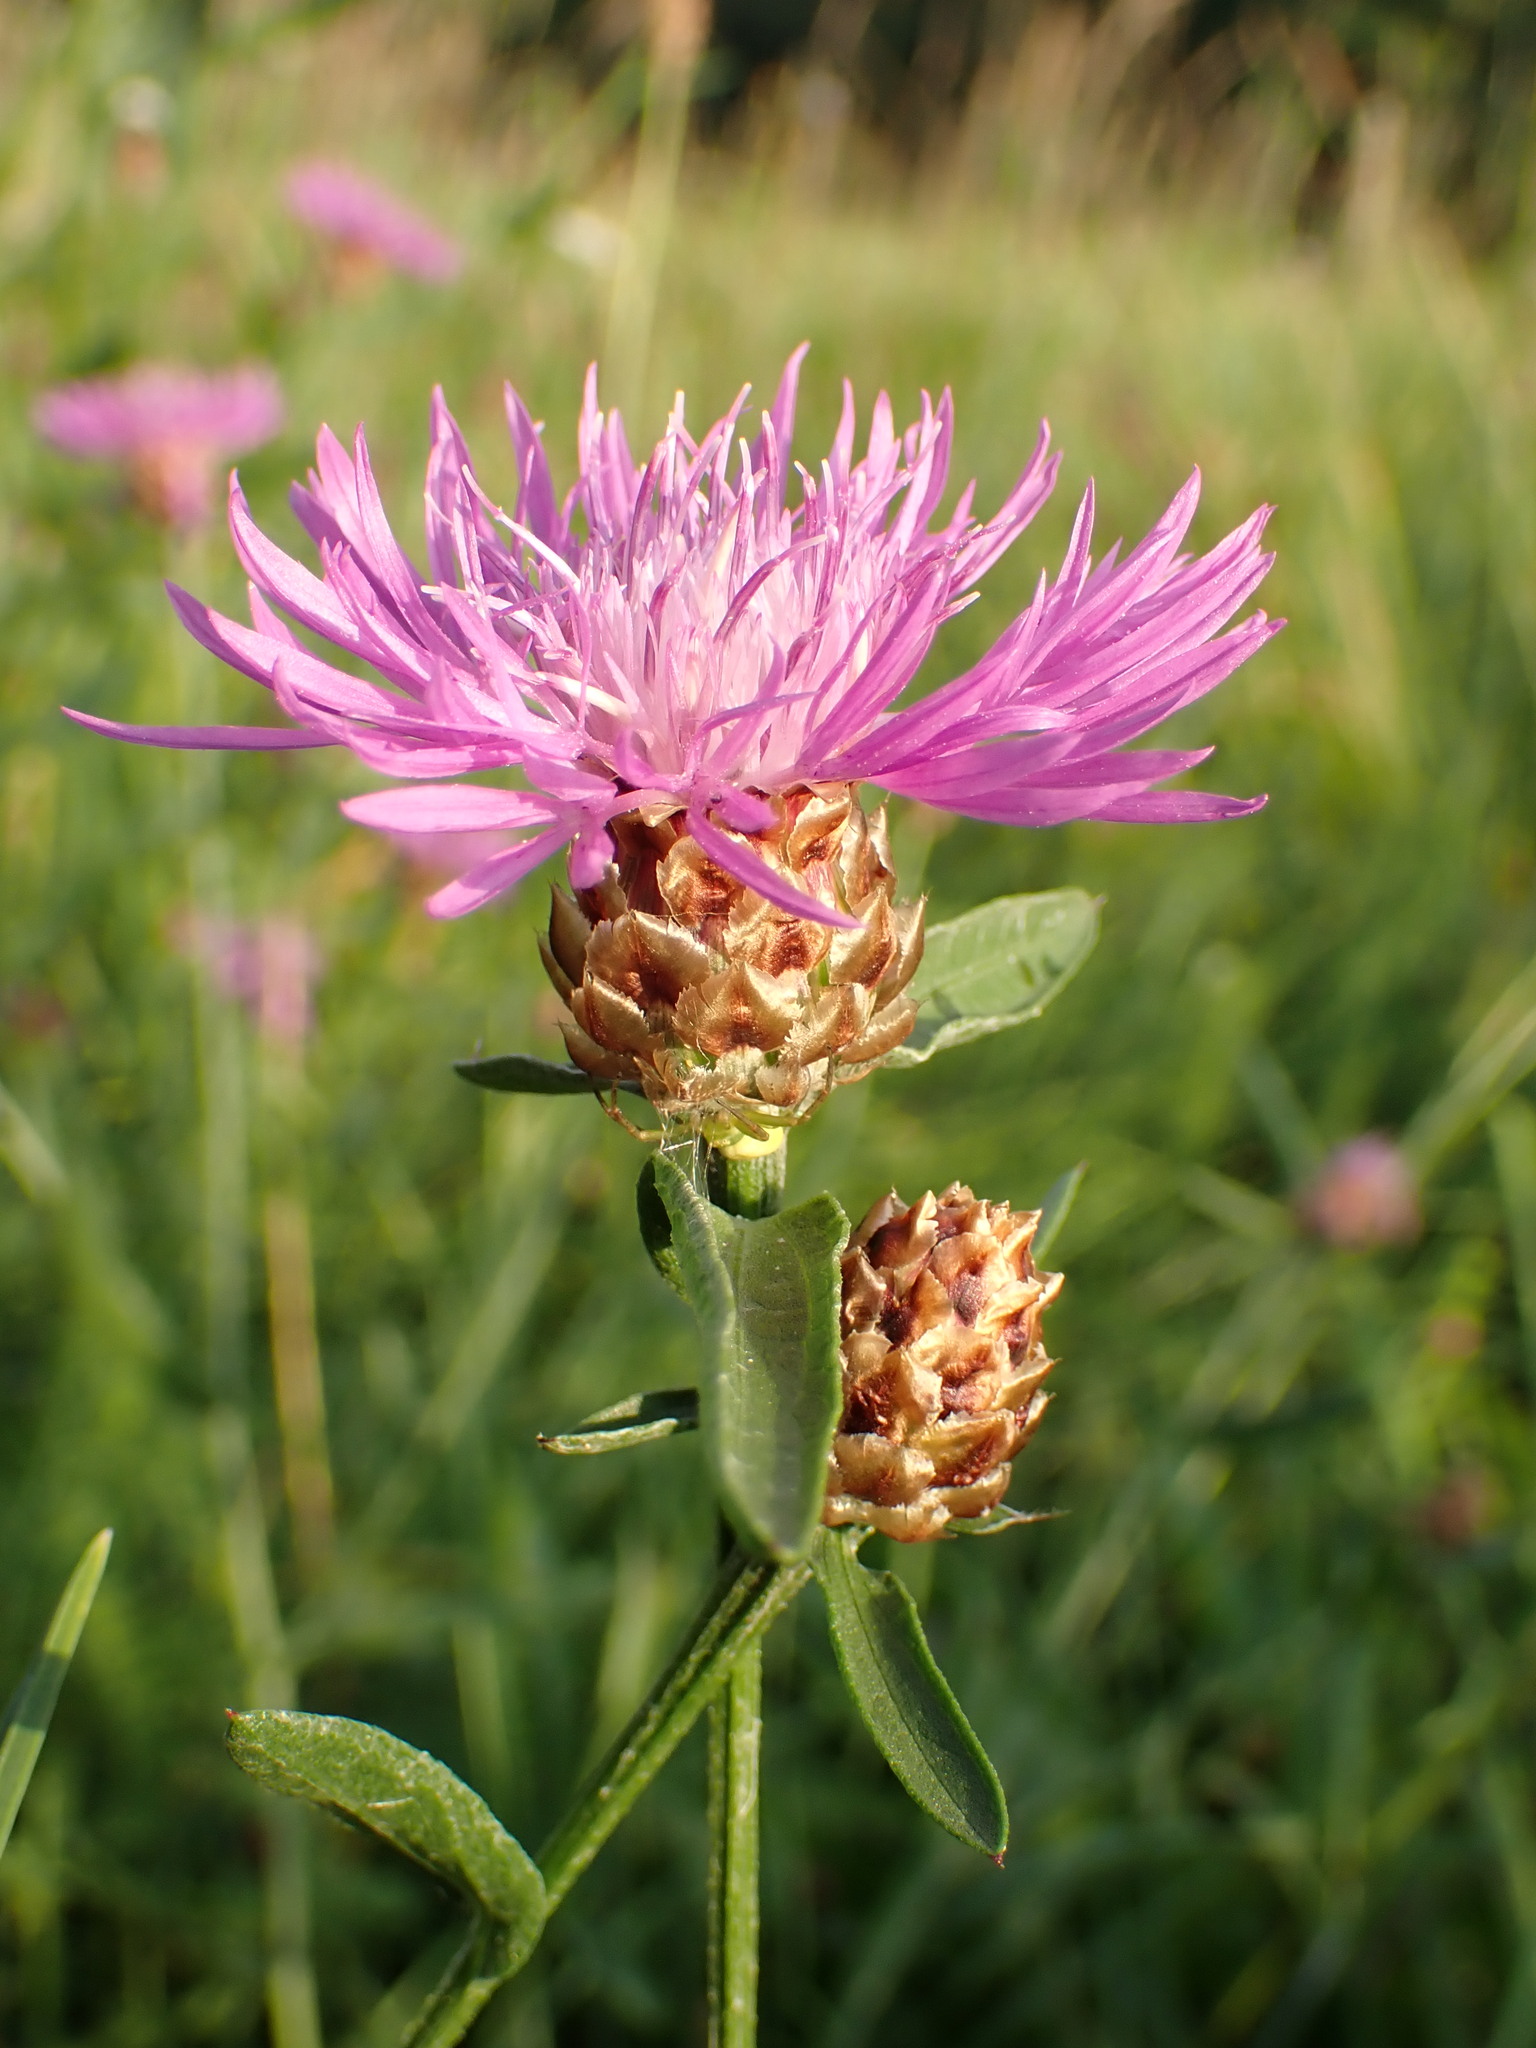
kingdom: Plantae
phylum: Tracheophyta
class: Magnoliopsida
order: Asterales
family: Asteraceae
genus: Centaurea
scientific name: Centaurea jacea
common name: Brown knapweed
